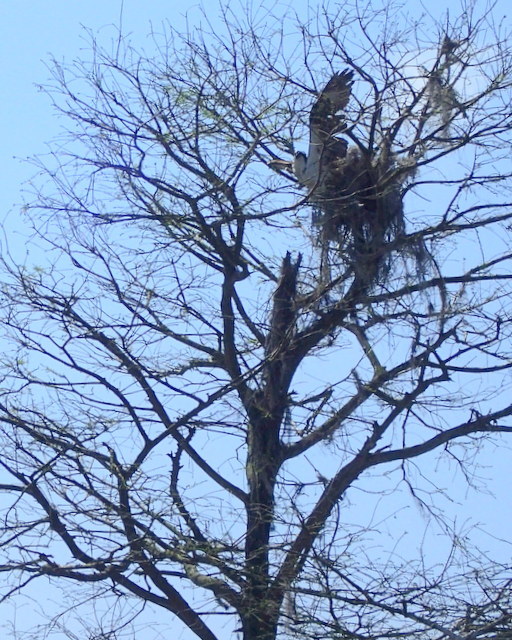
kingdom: Animalia
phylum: Chordata
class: Aves
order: Accipitriformes
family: Pandionidae
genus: Pandion
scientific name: Pandion haliaetus
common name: Osprey
